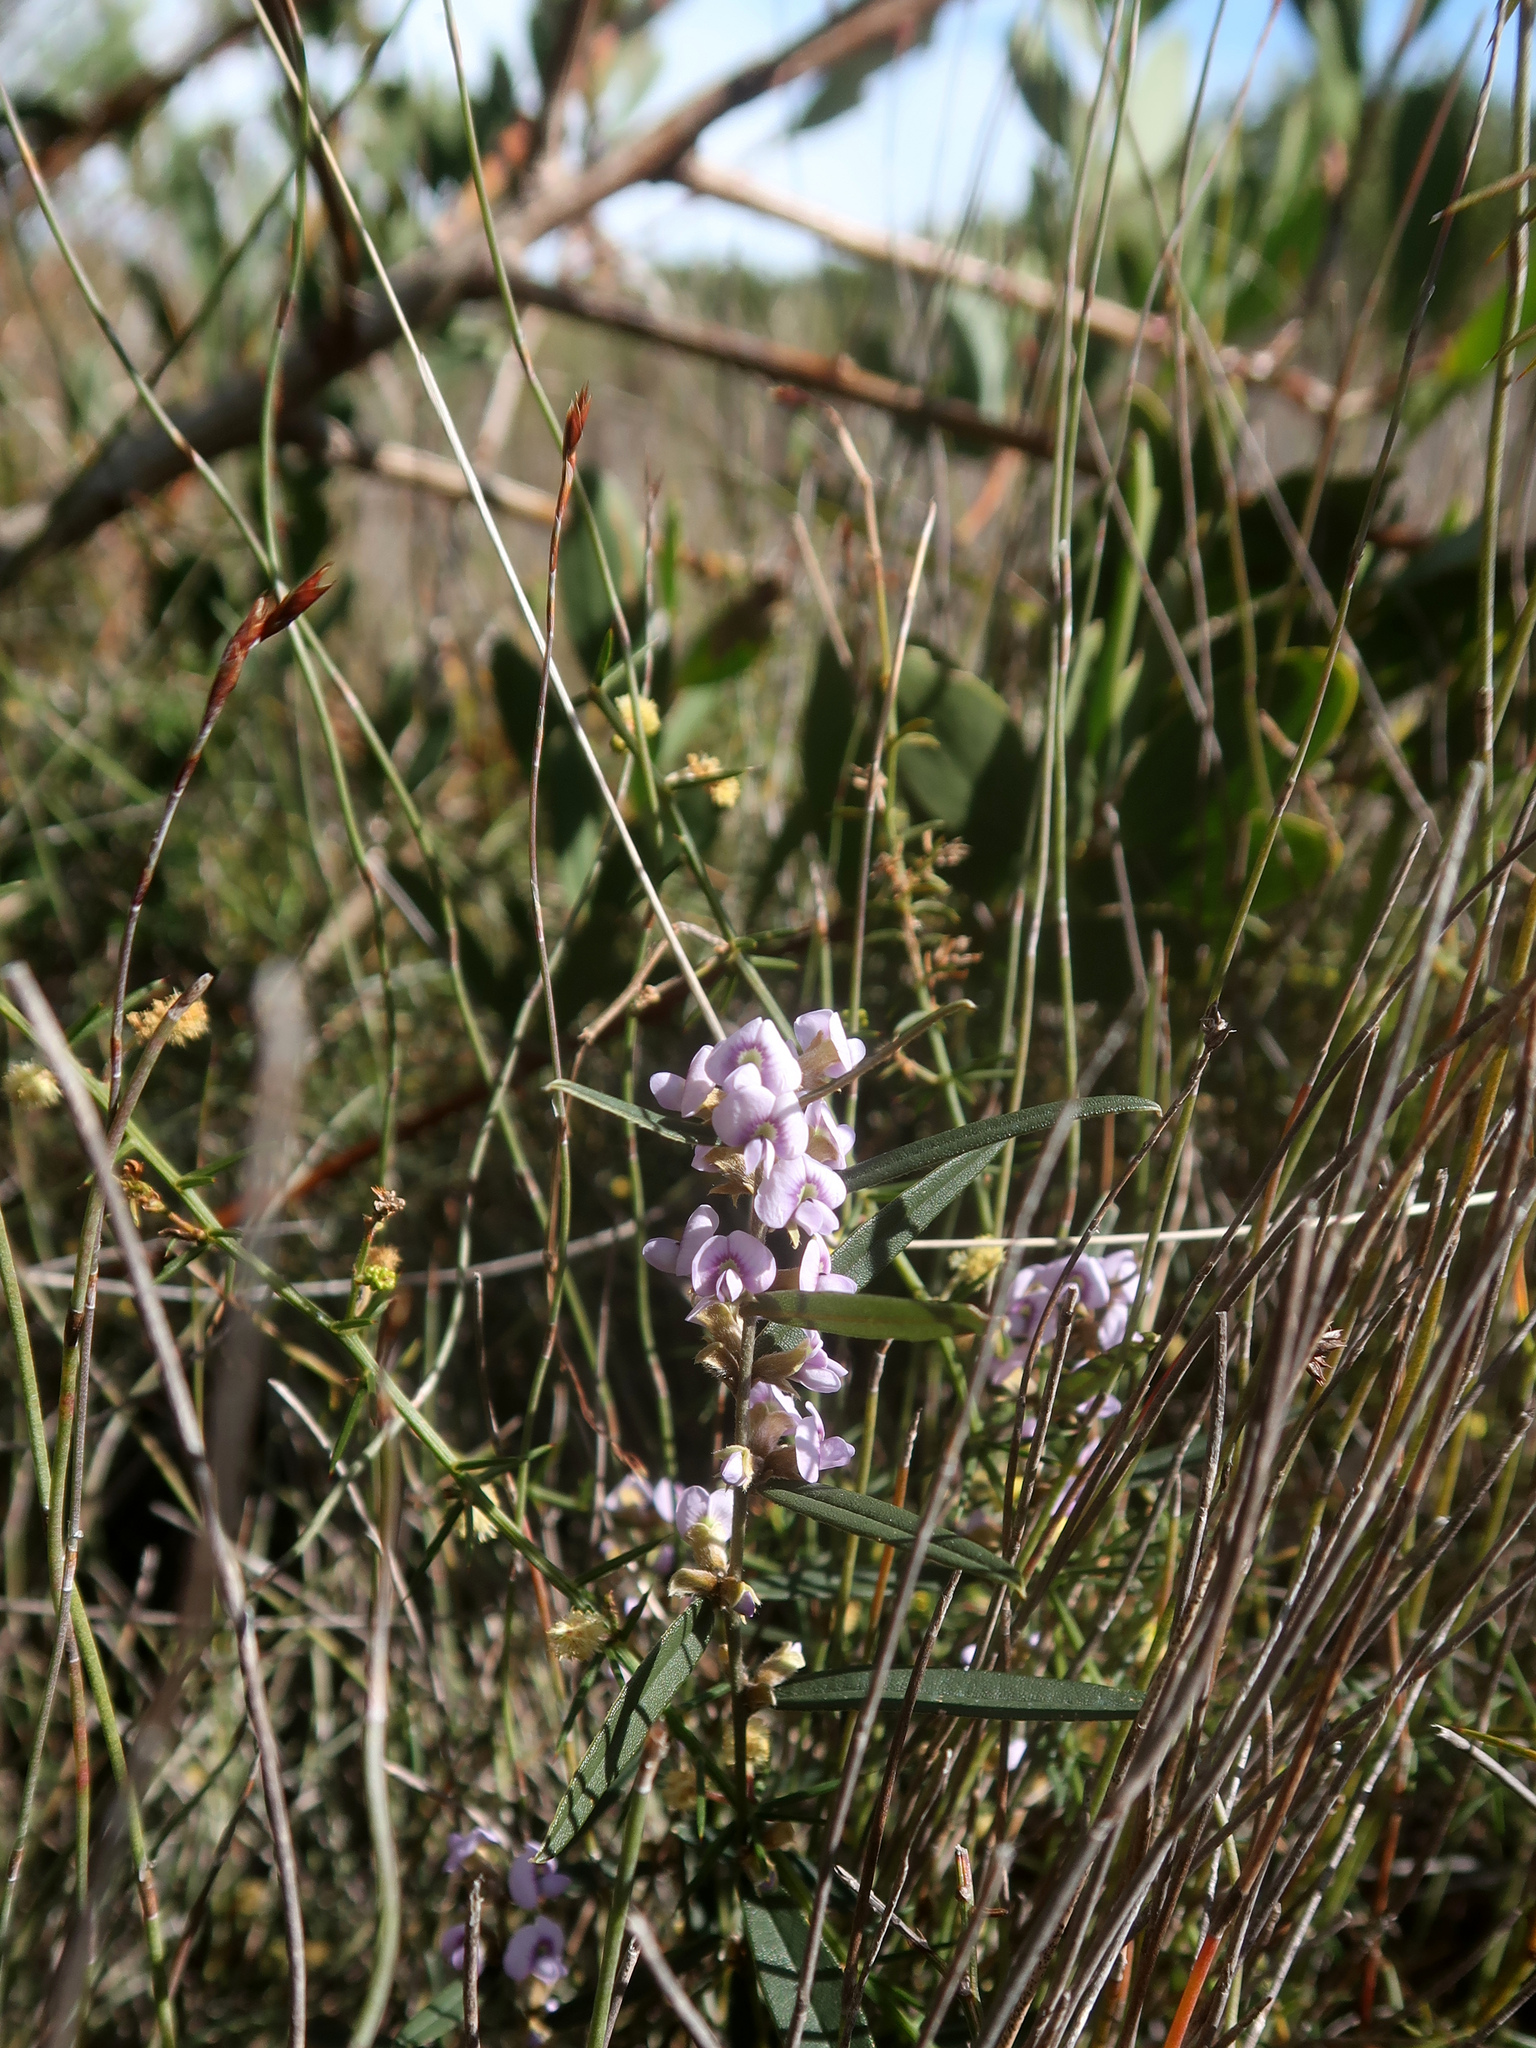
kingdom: Plantae
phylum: Tracheophyta
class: Magnoliopsida
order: Fabales
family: Fabaceae
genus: Hovea
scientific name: Hovea heterophylla
